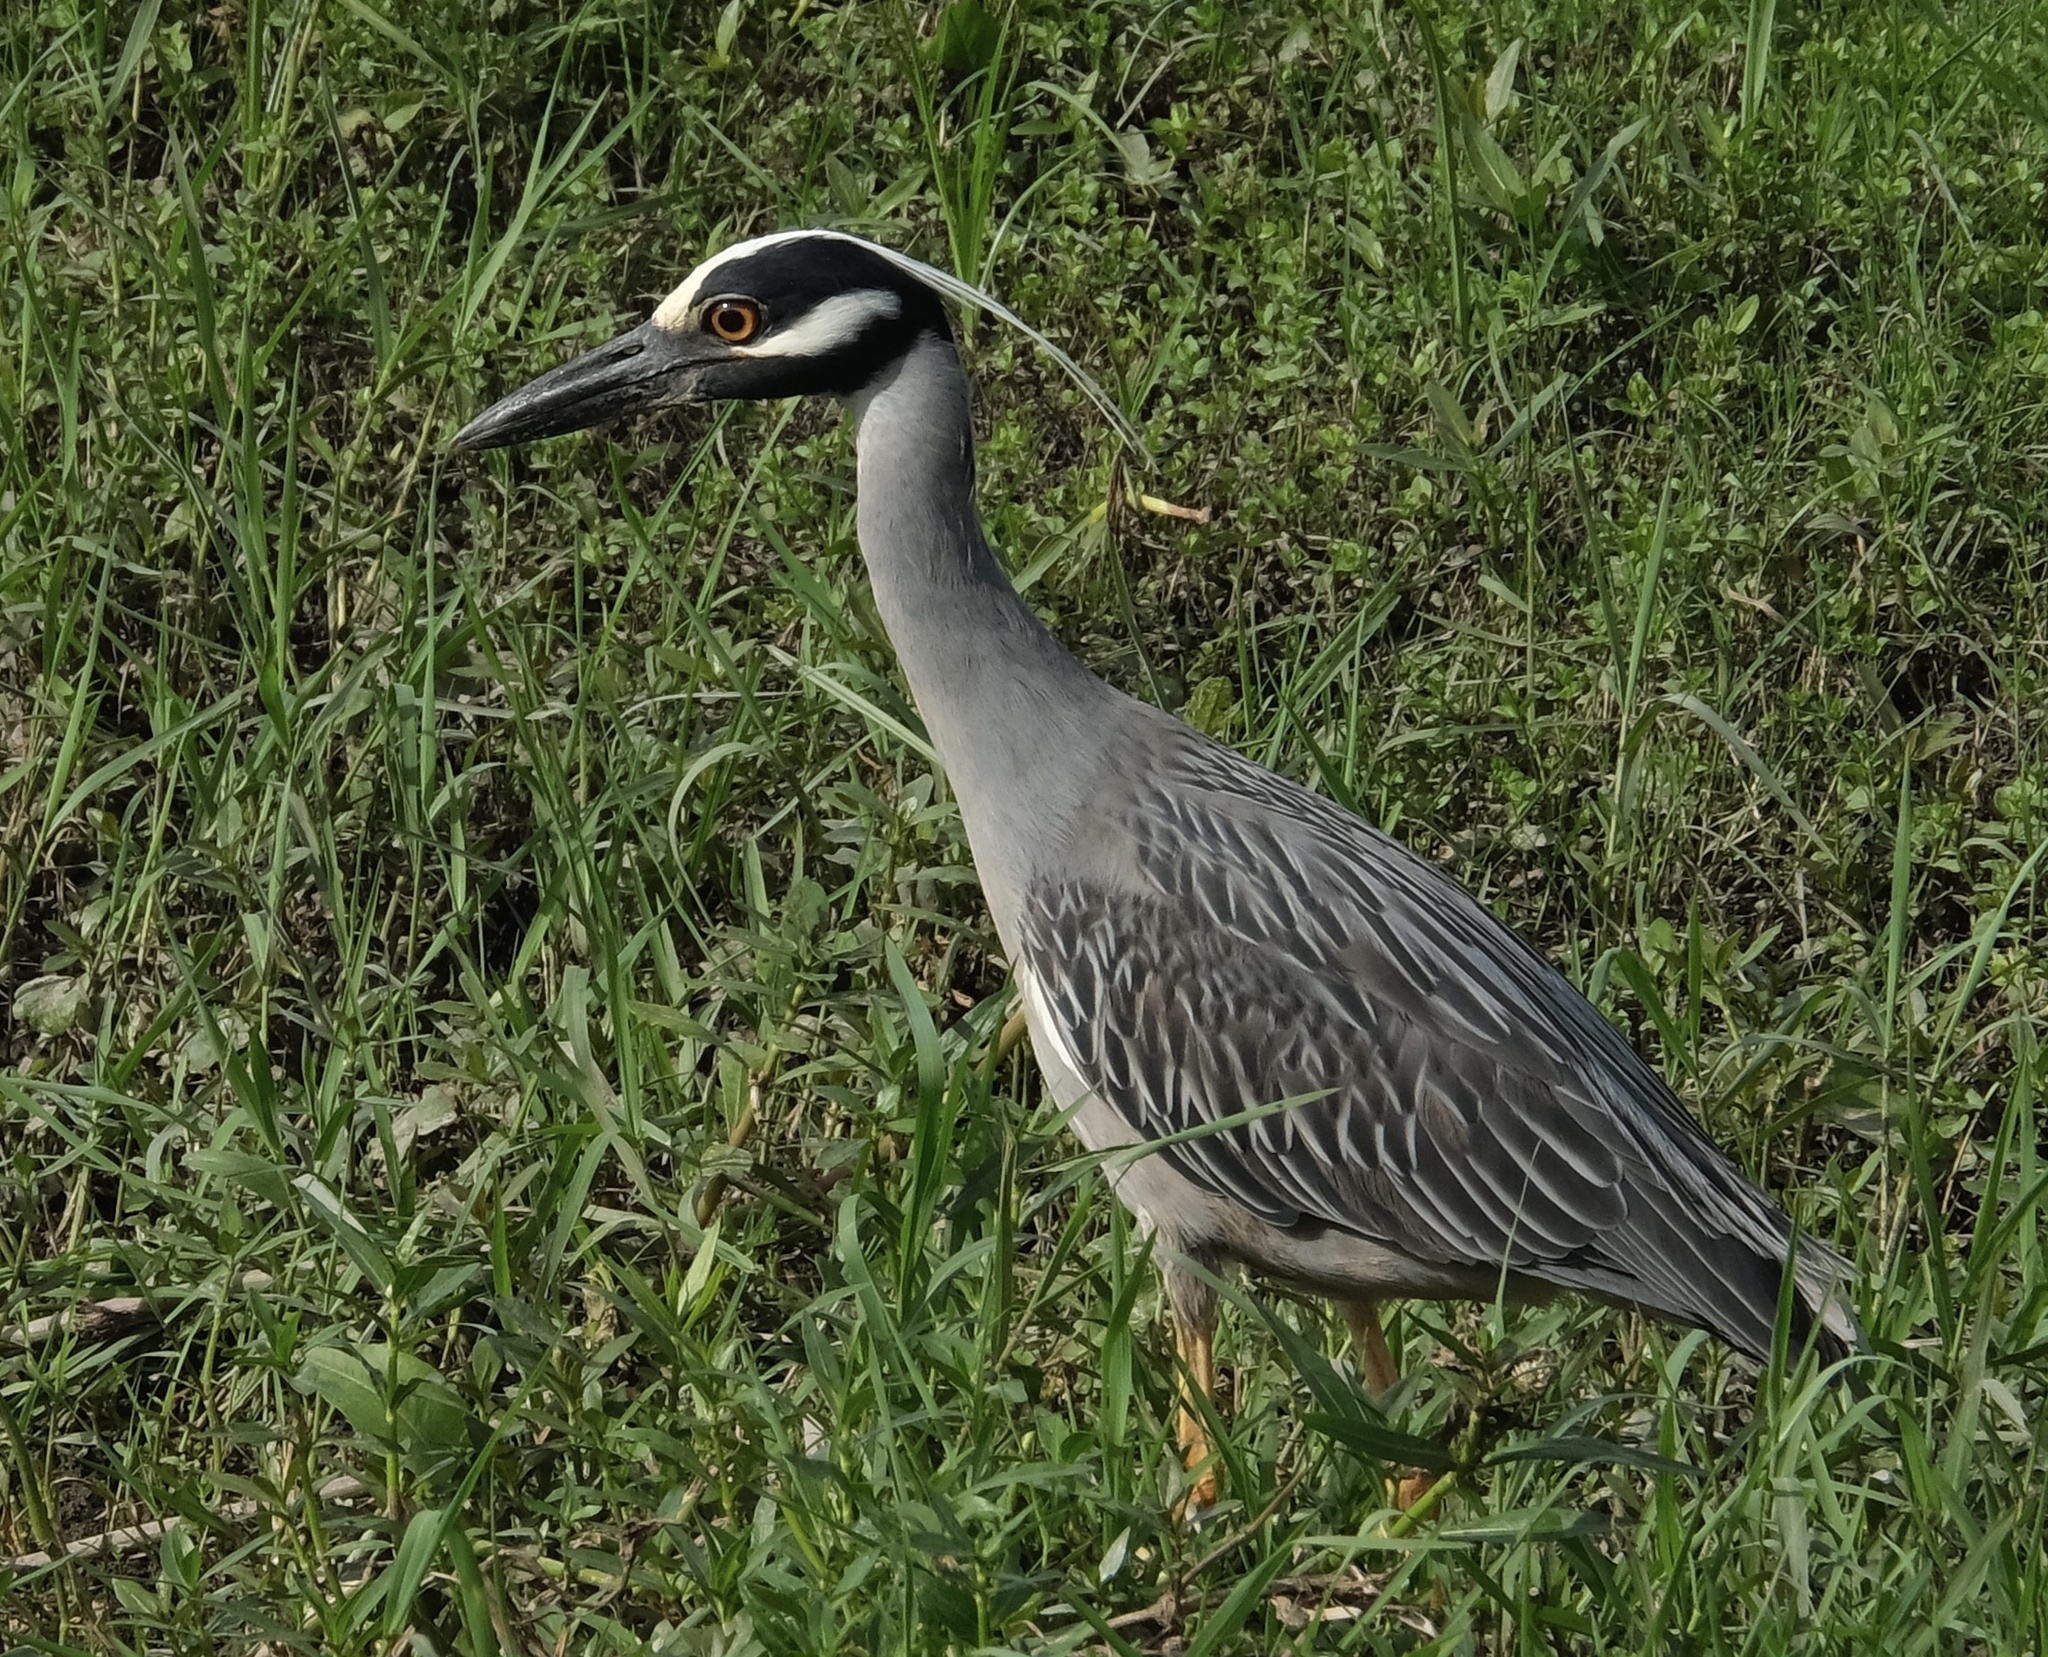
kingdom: Animalia
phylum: Chordata
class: Aves
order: Pelecaniformes
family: Ardeidae
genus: Nyctanassa
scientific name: Nyctanassa violacea
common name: Yellow-crowned night heron
